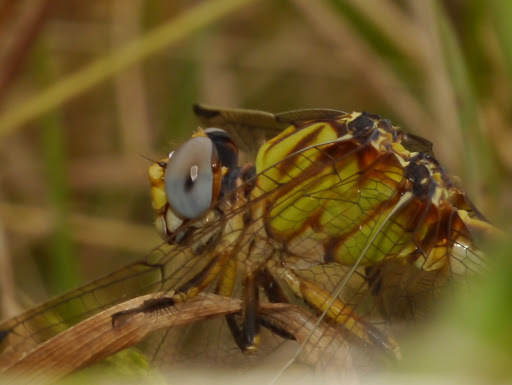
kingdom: Animalia
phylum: Arthropoda
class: Insecta
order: Odonata
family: Gomphidae
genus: Erpetogomphus
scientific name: Erpetogomphus designatus
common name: Eastern ringtail
